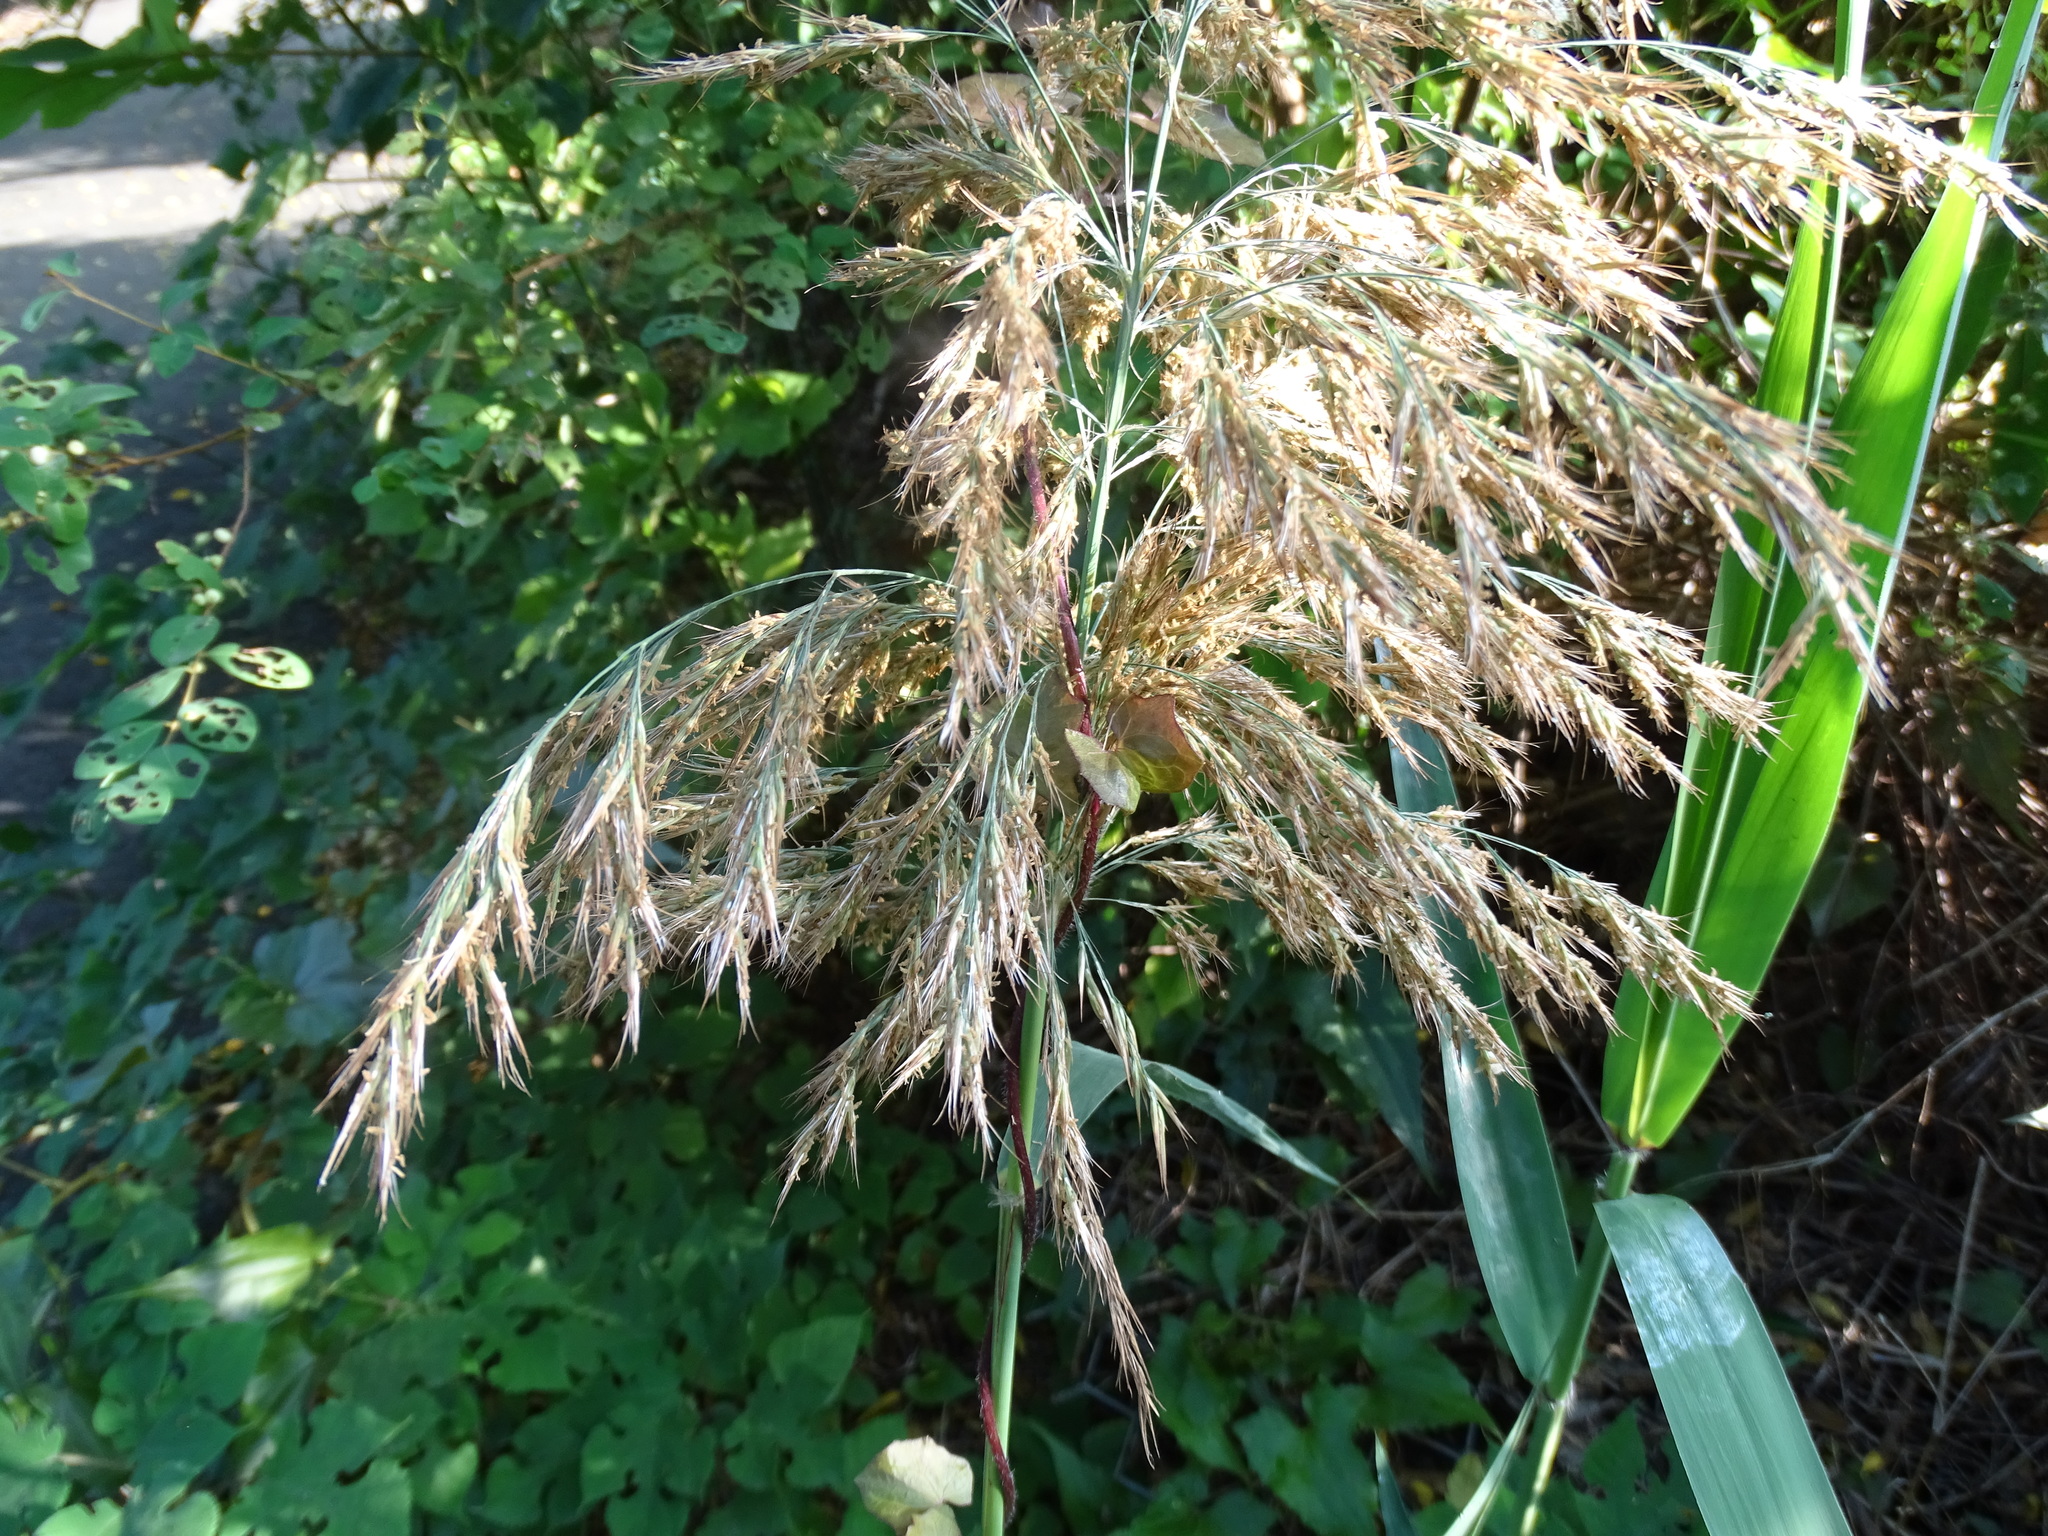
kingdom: Plantae
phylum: Tracheophyta
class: Liliopsida
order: Poales
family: Poaceae
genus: Phragmites
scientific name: Phragmites australis
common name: Common reed
